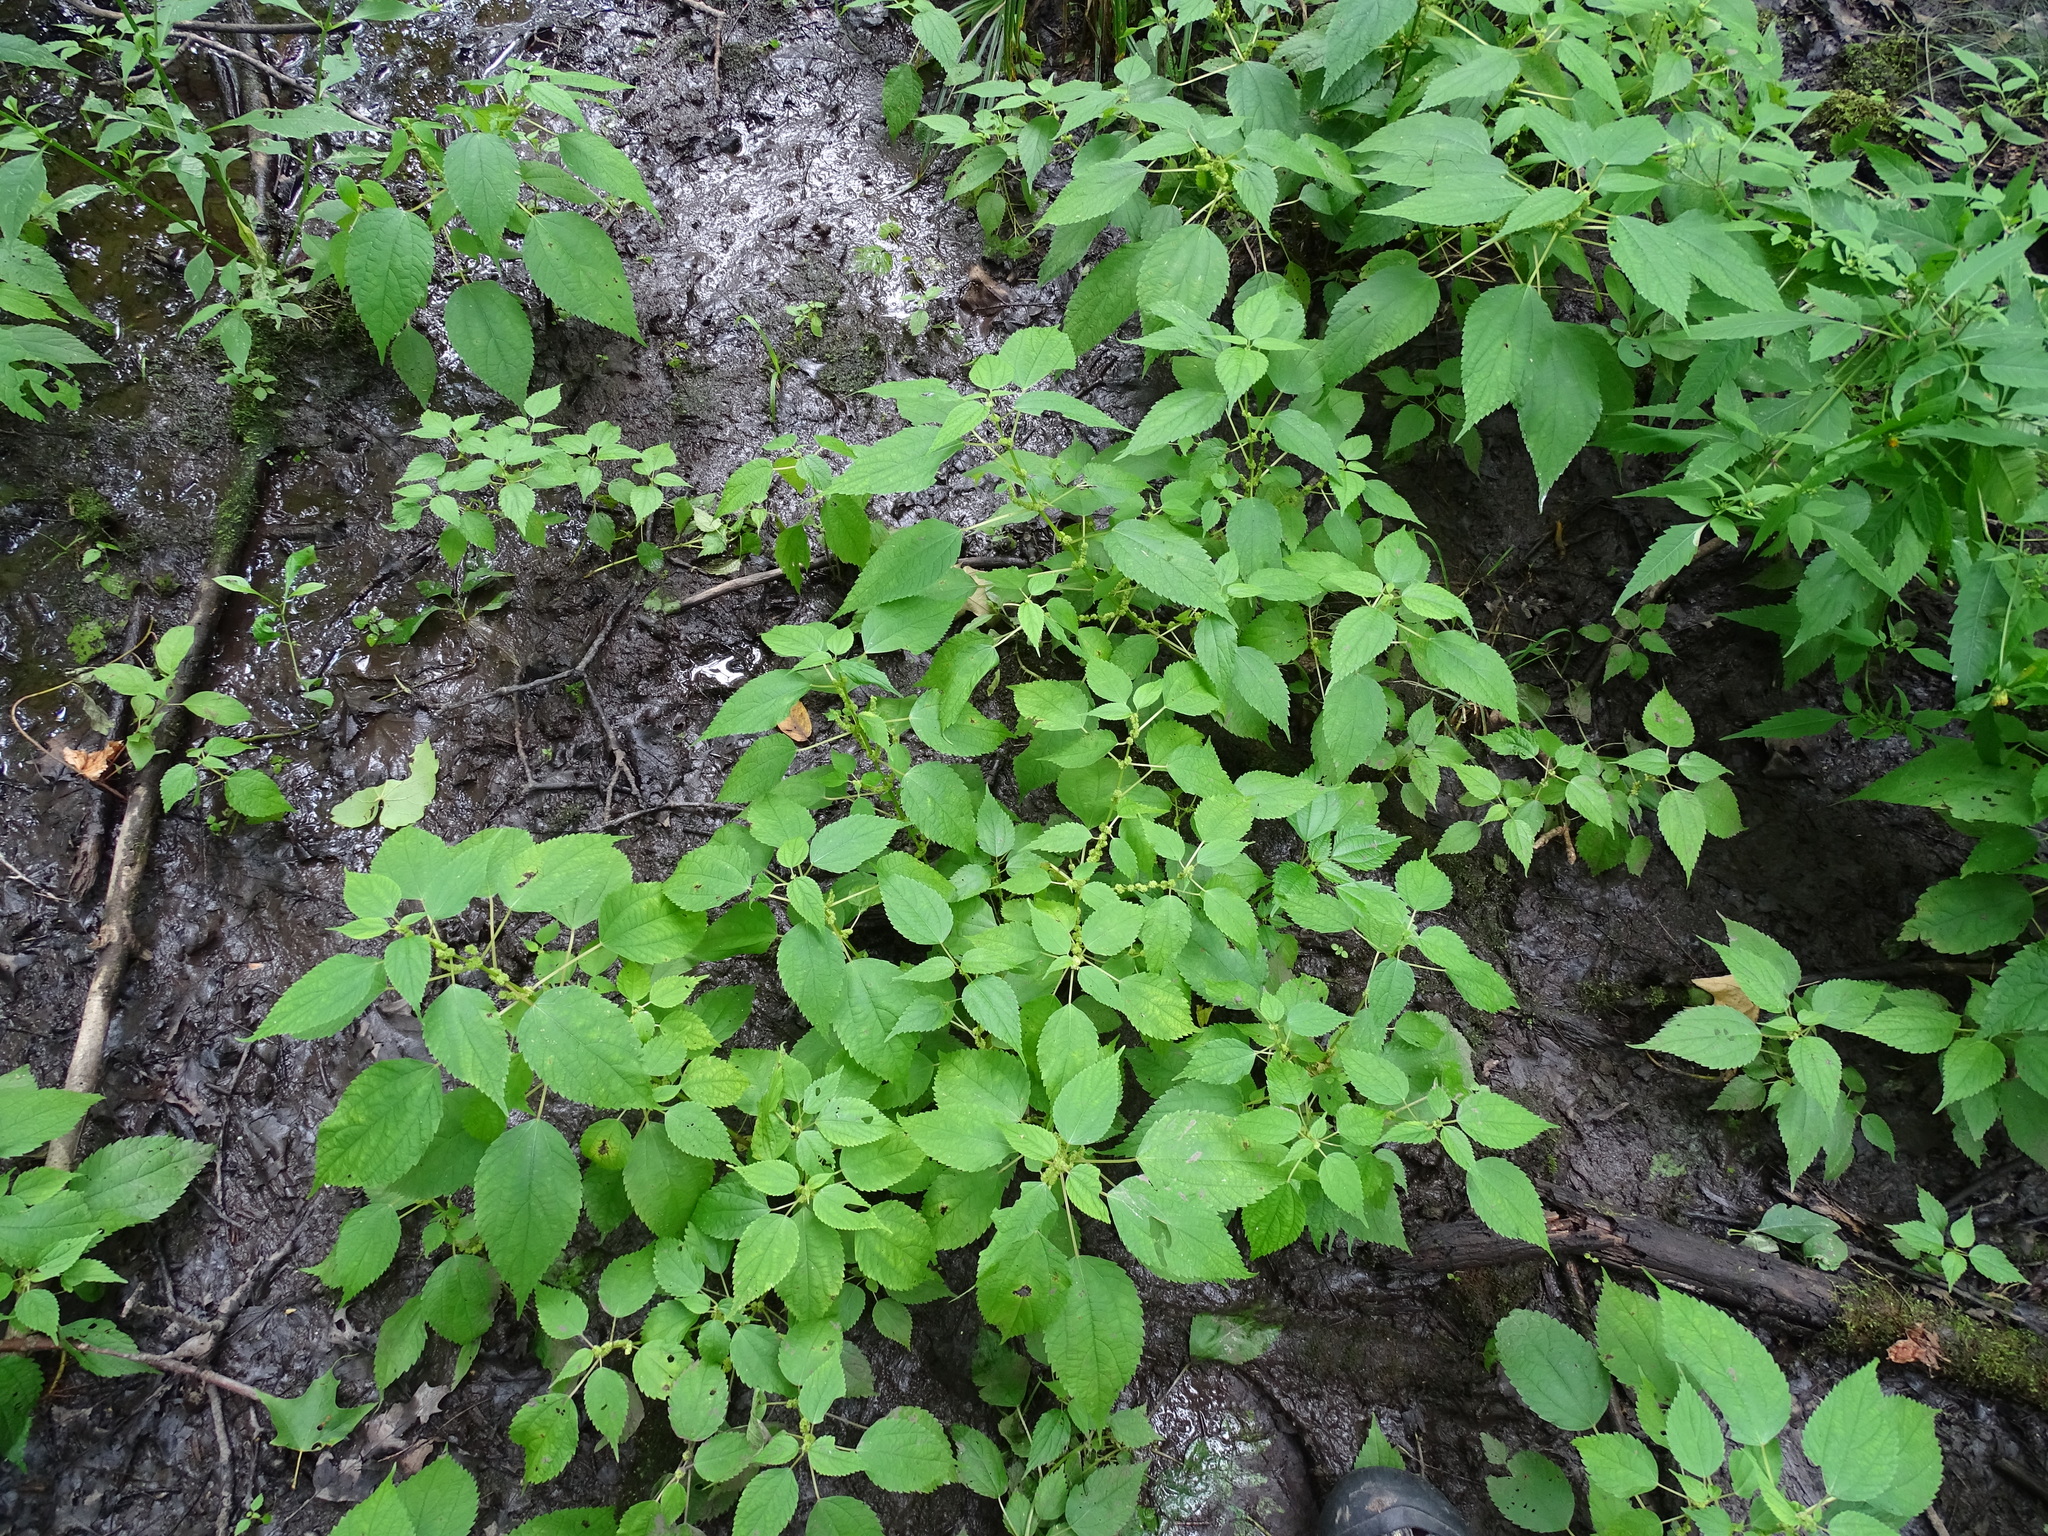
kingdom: Plantae
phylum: Tracheophyta
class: Magnoliopsida
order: Rosales
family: Urticaceae
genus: Boehmeria
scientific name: Boehmeria cylindrica
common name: Bog-hemp
